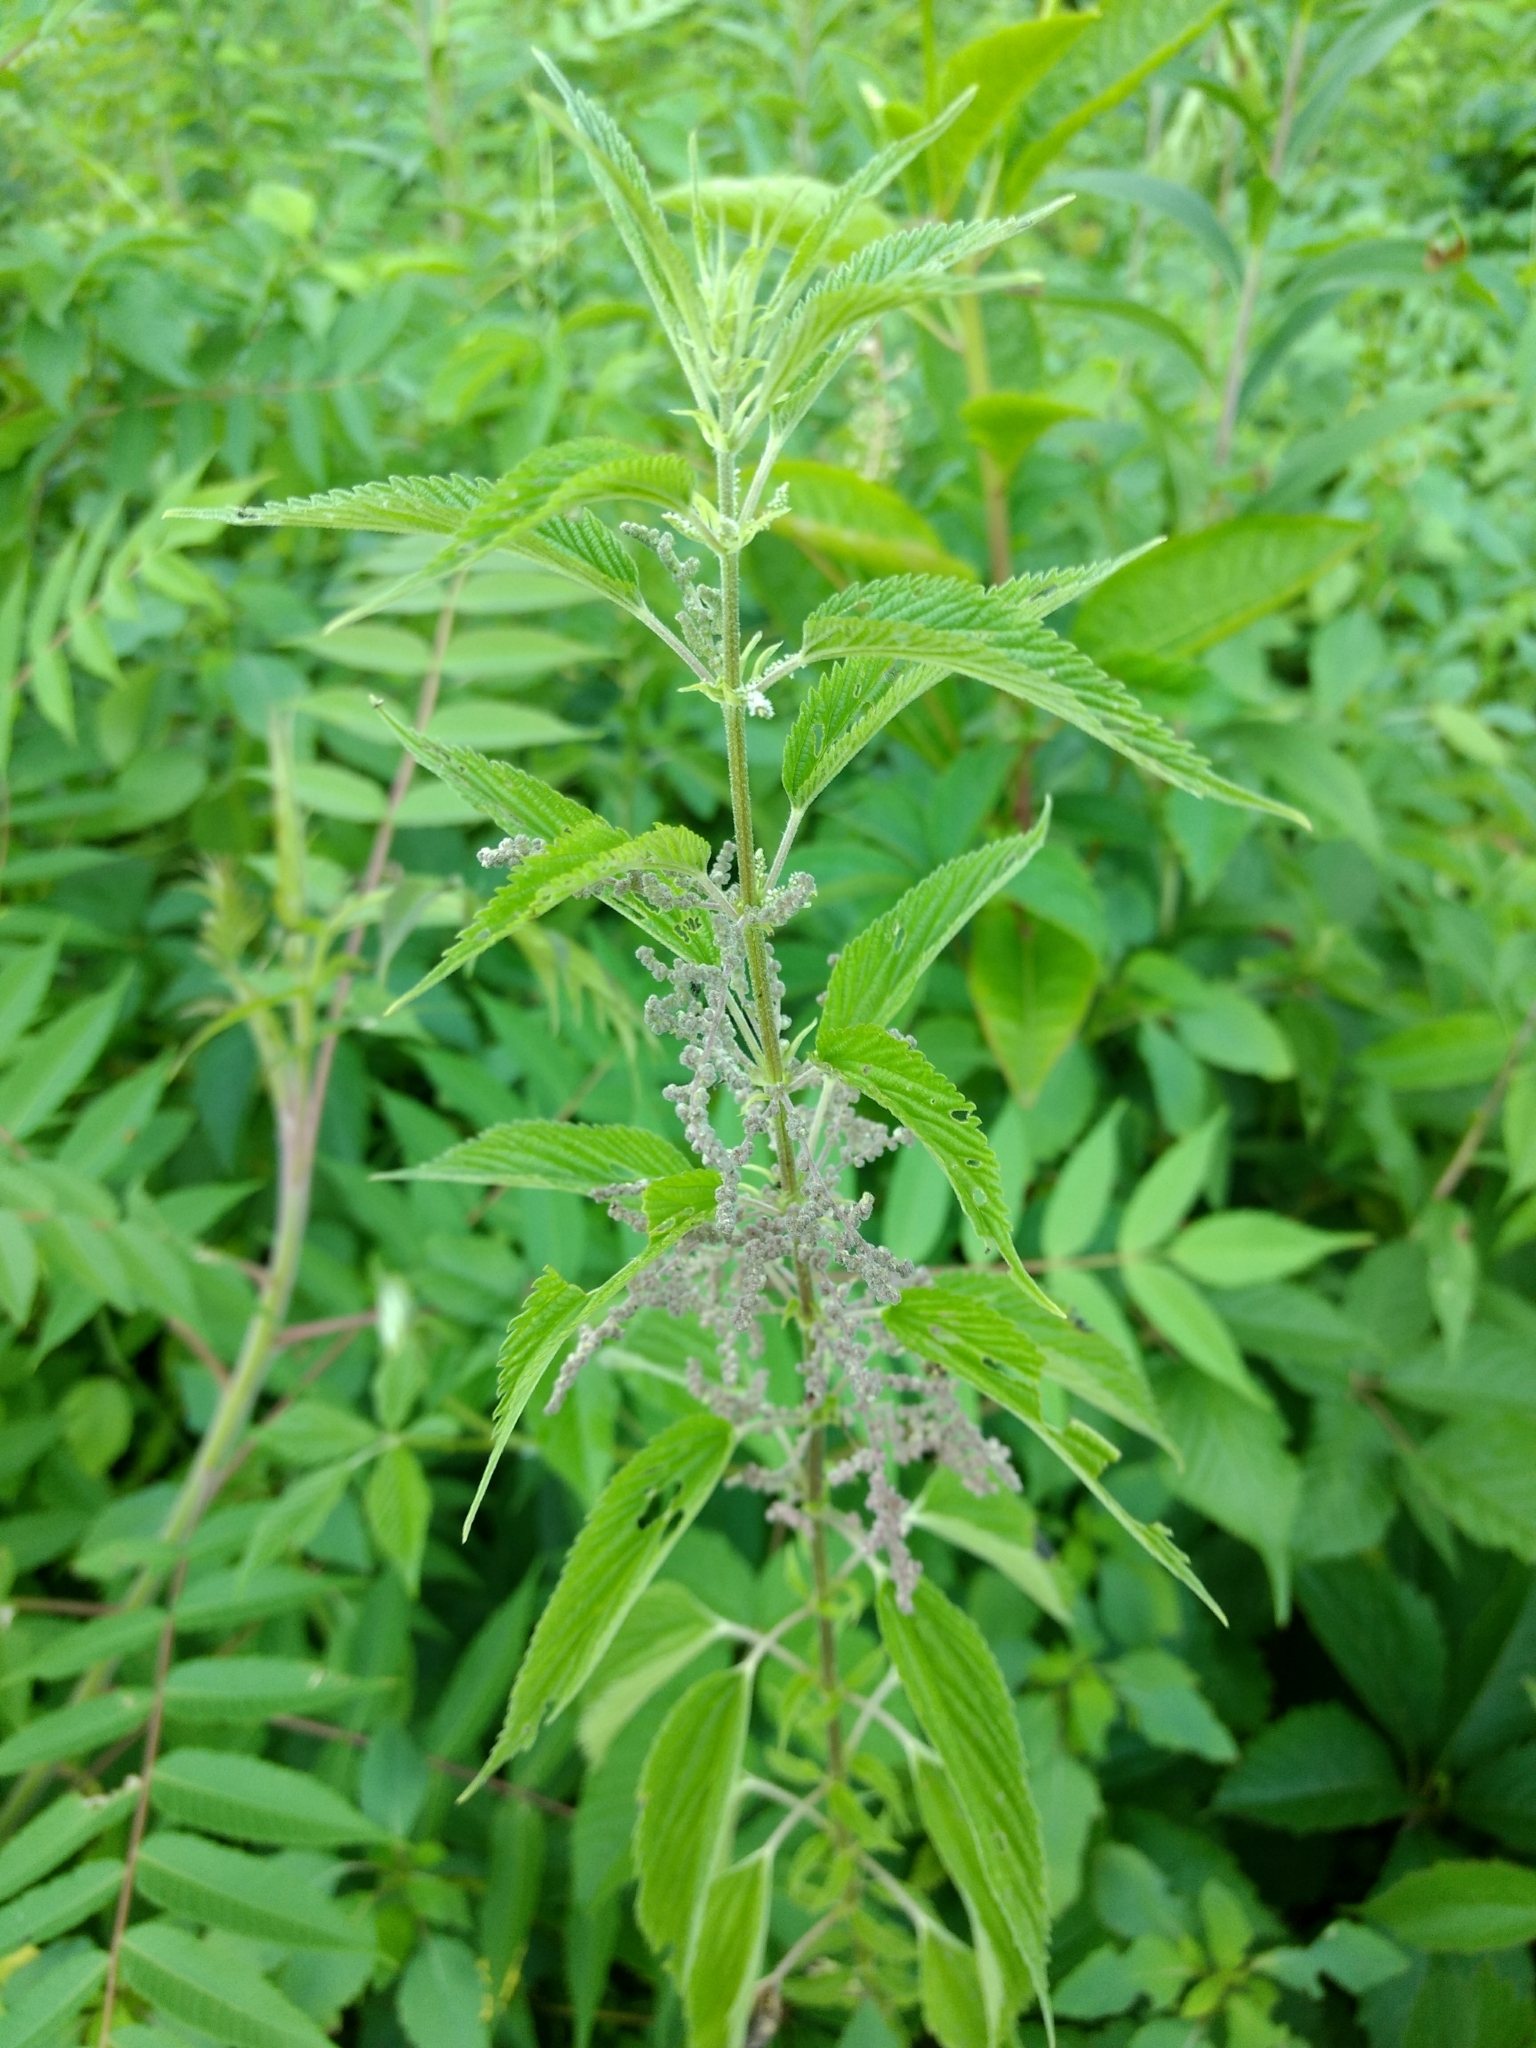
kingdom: Plantae
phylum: Tracheophyta
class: Magnoliopsida
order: Rosales
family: Urticaceae
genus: Urtica
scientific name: Urtica dioica
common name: Common nettle
